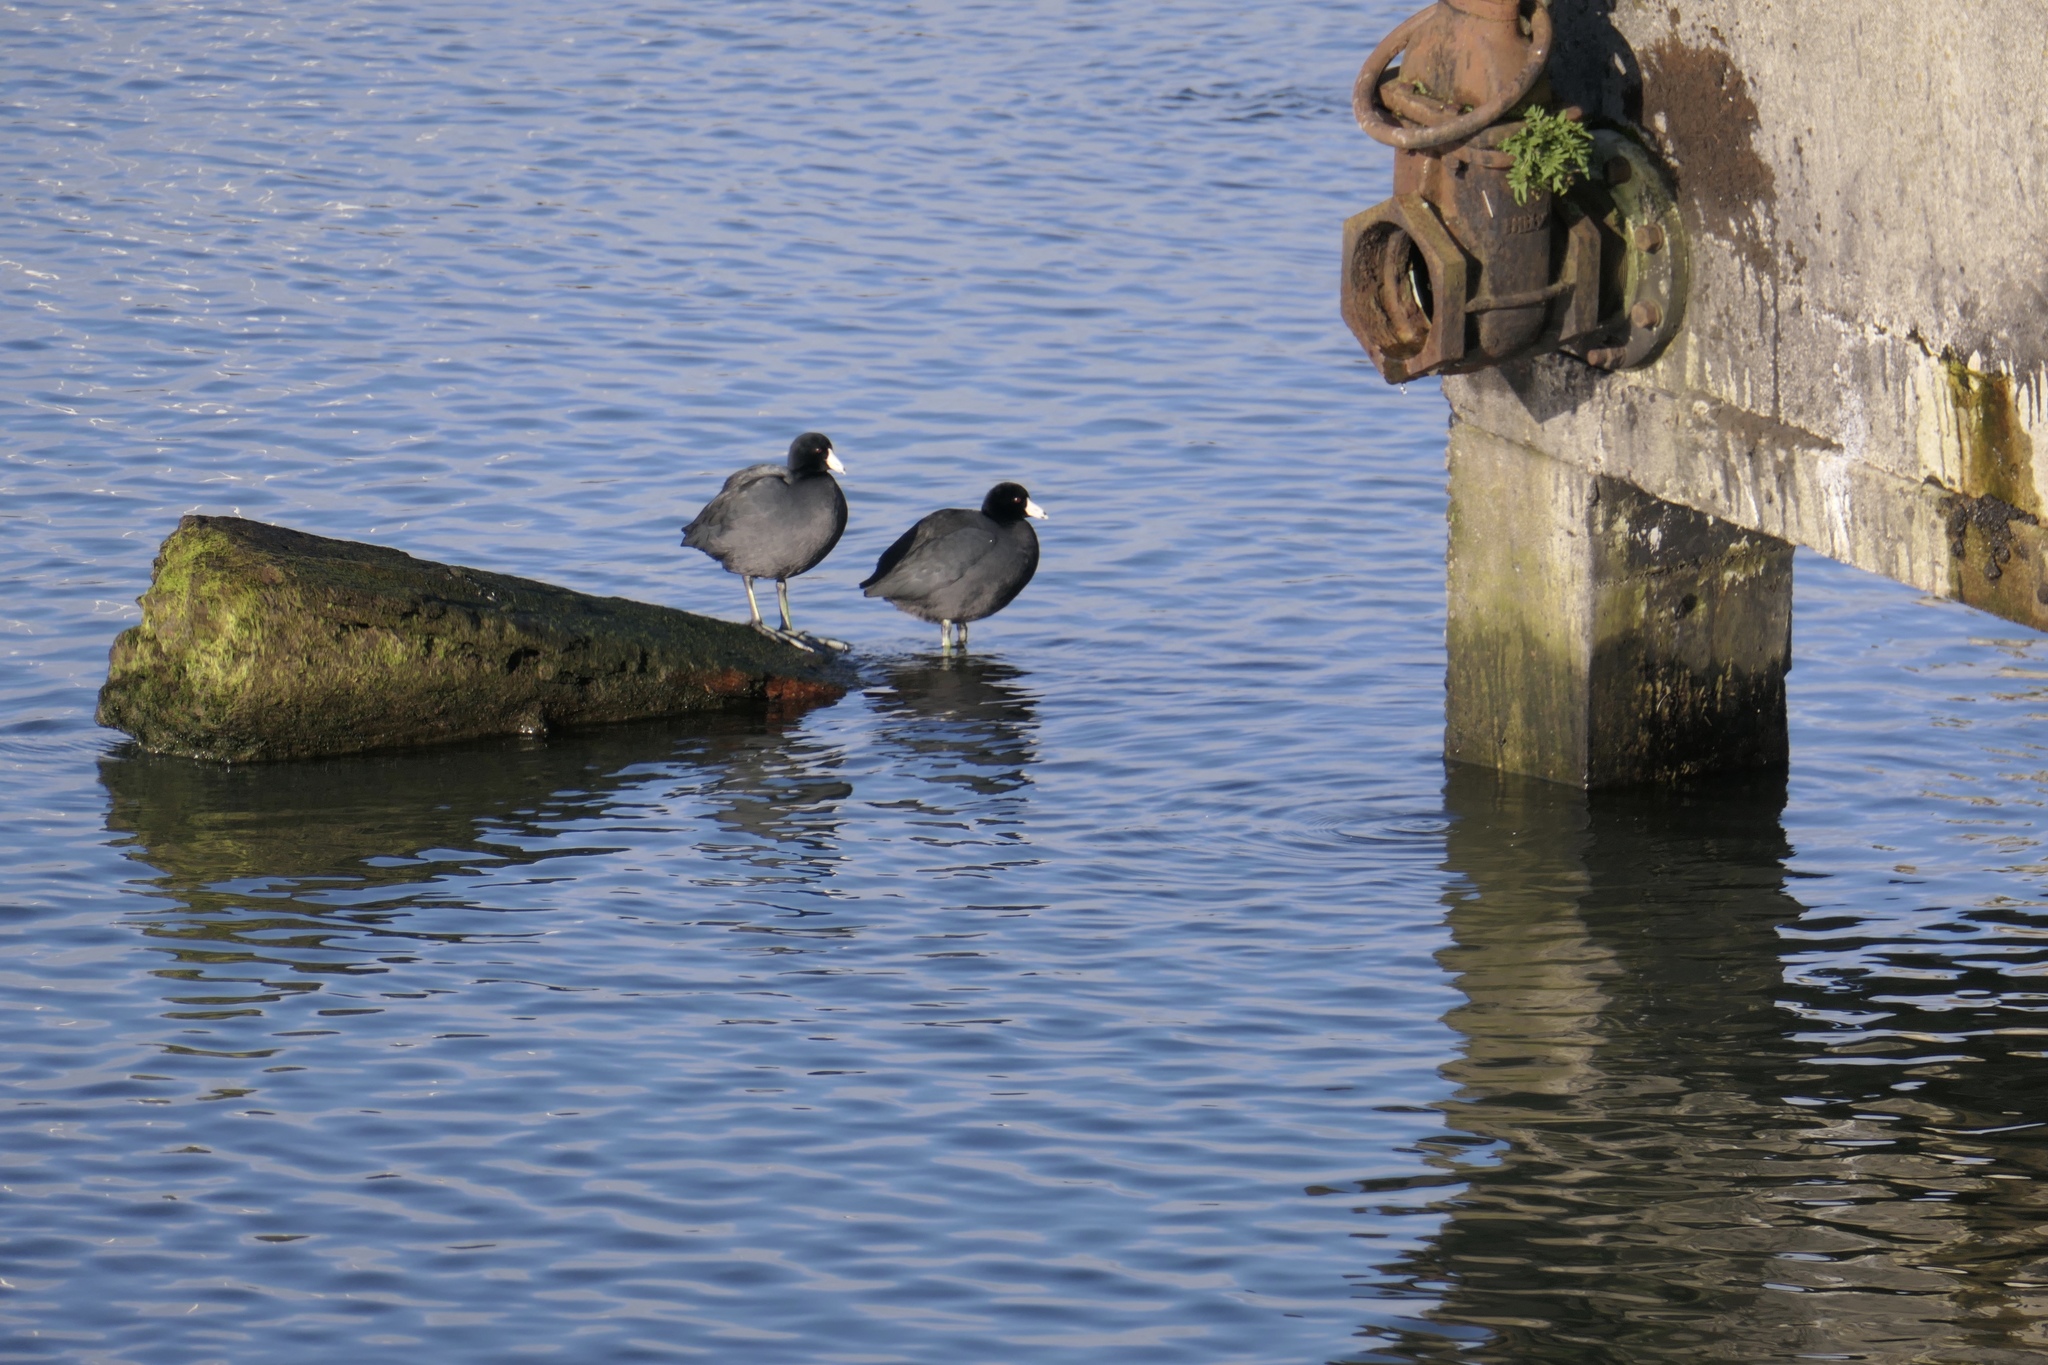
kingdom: Animalia
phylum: Chordata
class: Aves
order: Gruiformes
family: Rallidae
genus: Fulica
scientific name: Fulica americana
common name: American coot
